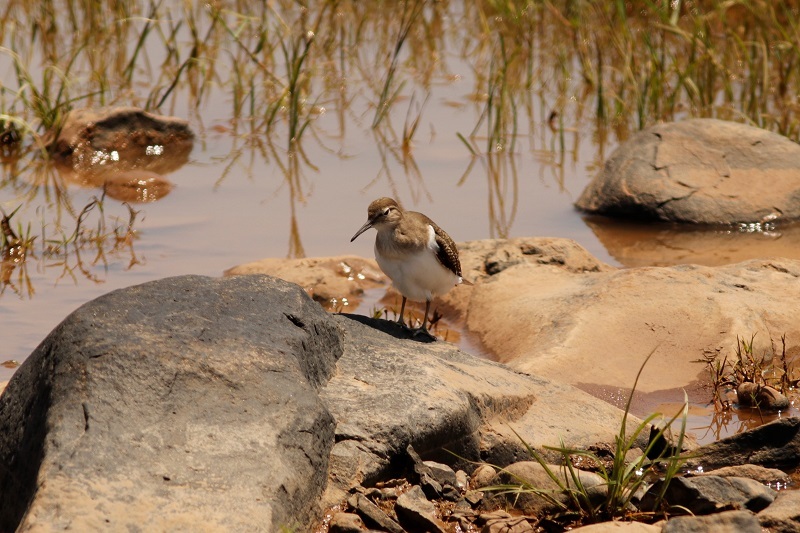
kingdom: Animalia
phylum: Chordata
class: Aves
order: Charadriiformes
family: Scolopacidae
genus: Actitis
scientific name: Actitis hypoleucos
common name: Common sandpiper
